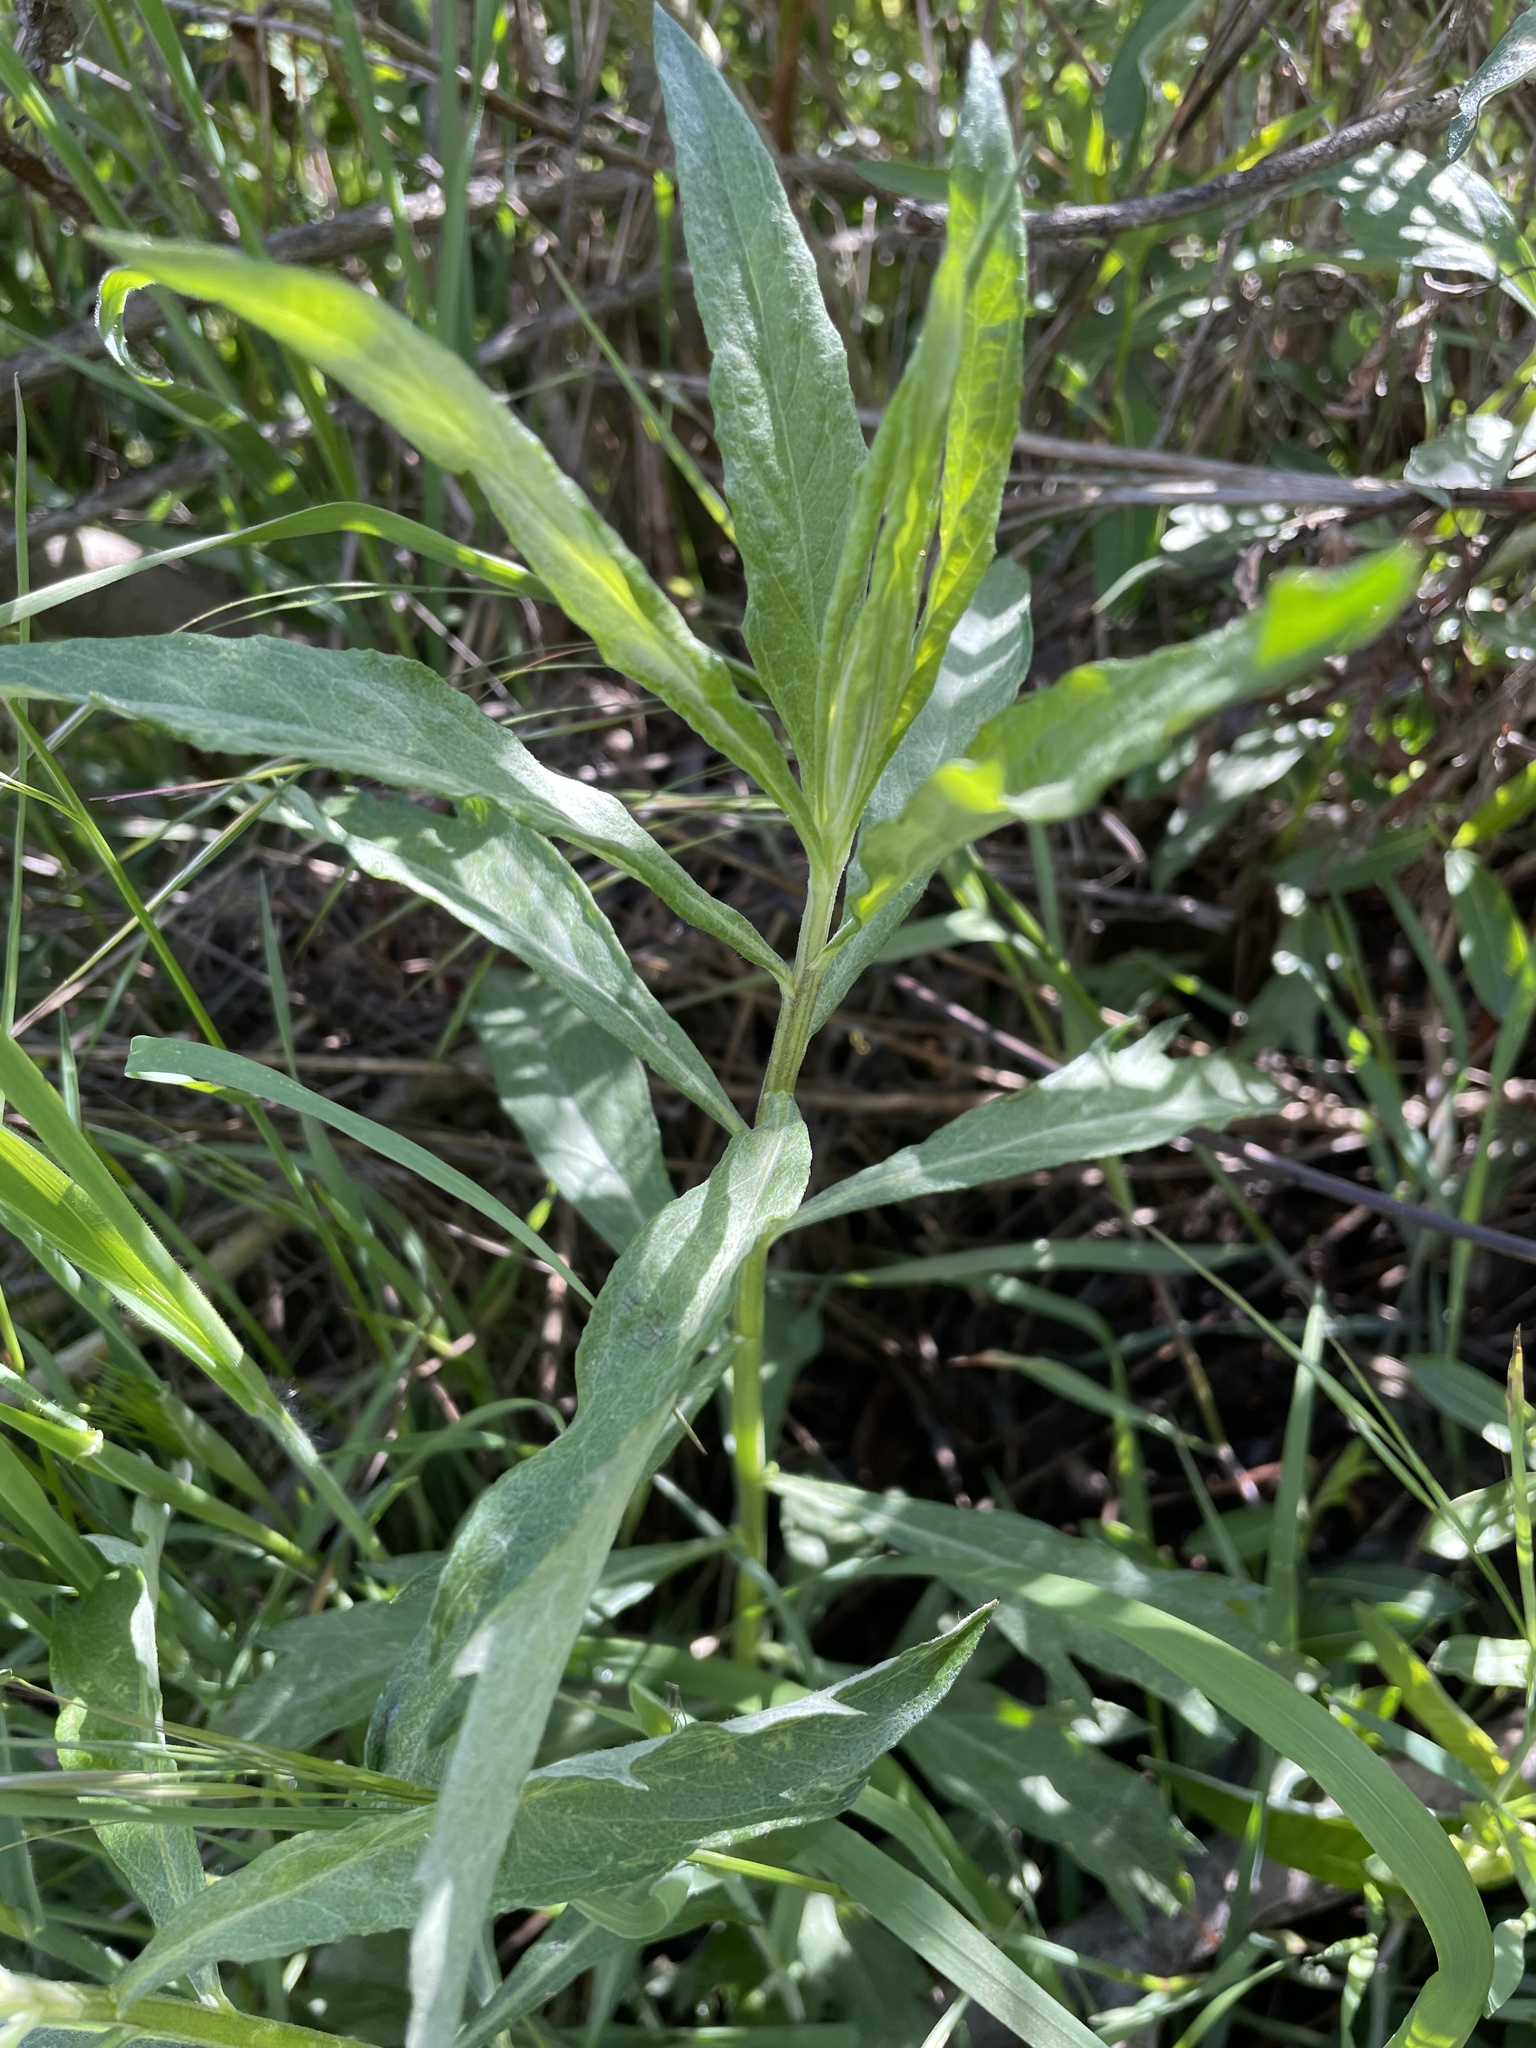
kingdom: Plantae
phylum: Tracheophyta
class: Magnoliopsida
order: Asterales
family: Asteraceae
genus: Artemisia
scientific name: Artemisia douglasiana
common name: Northwest mugwort
